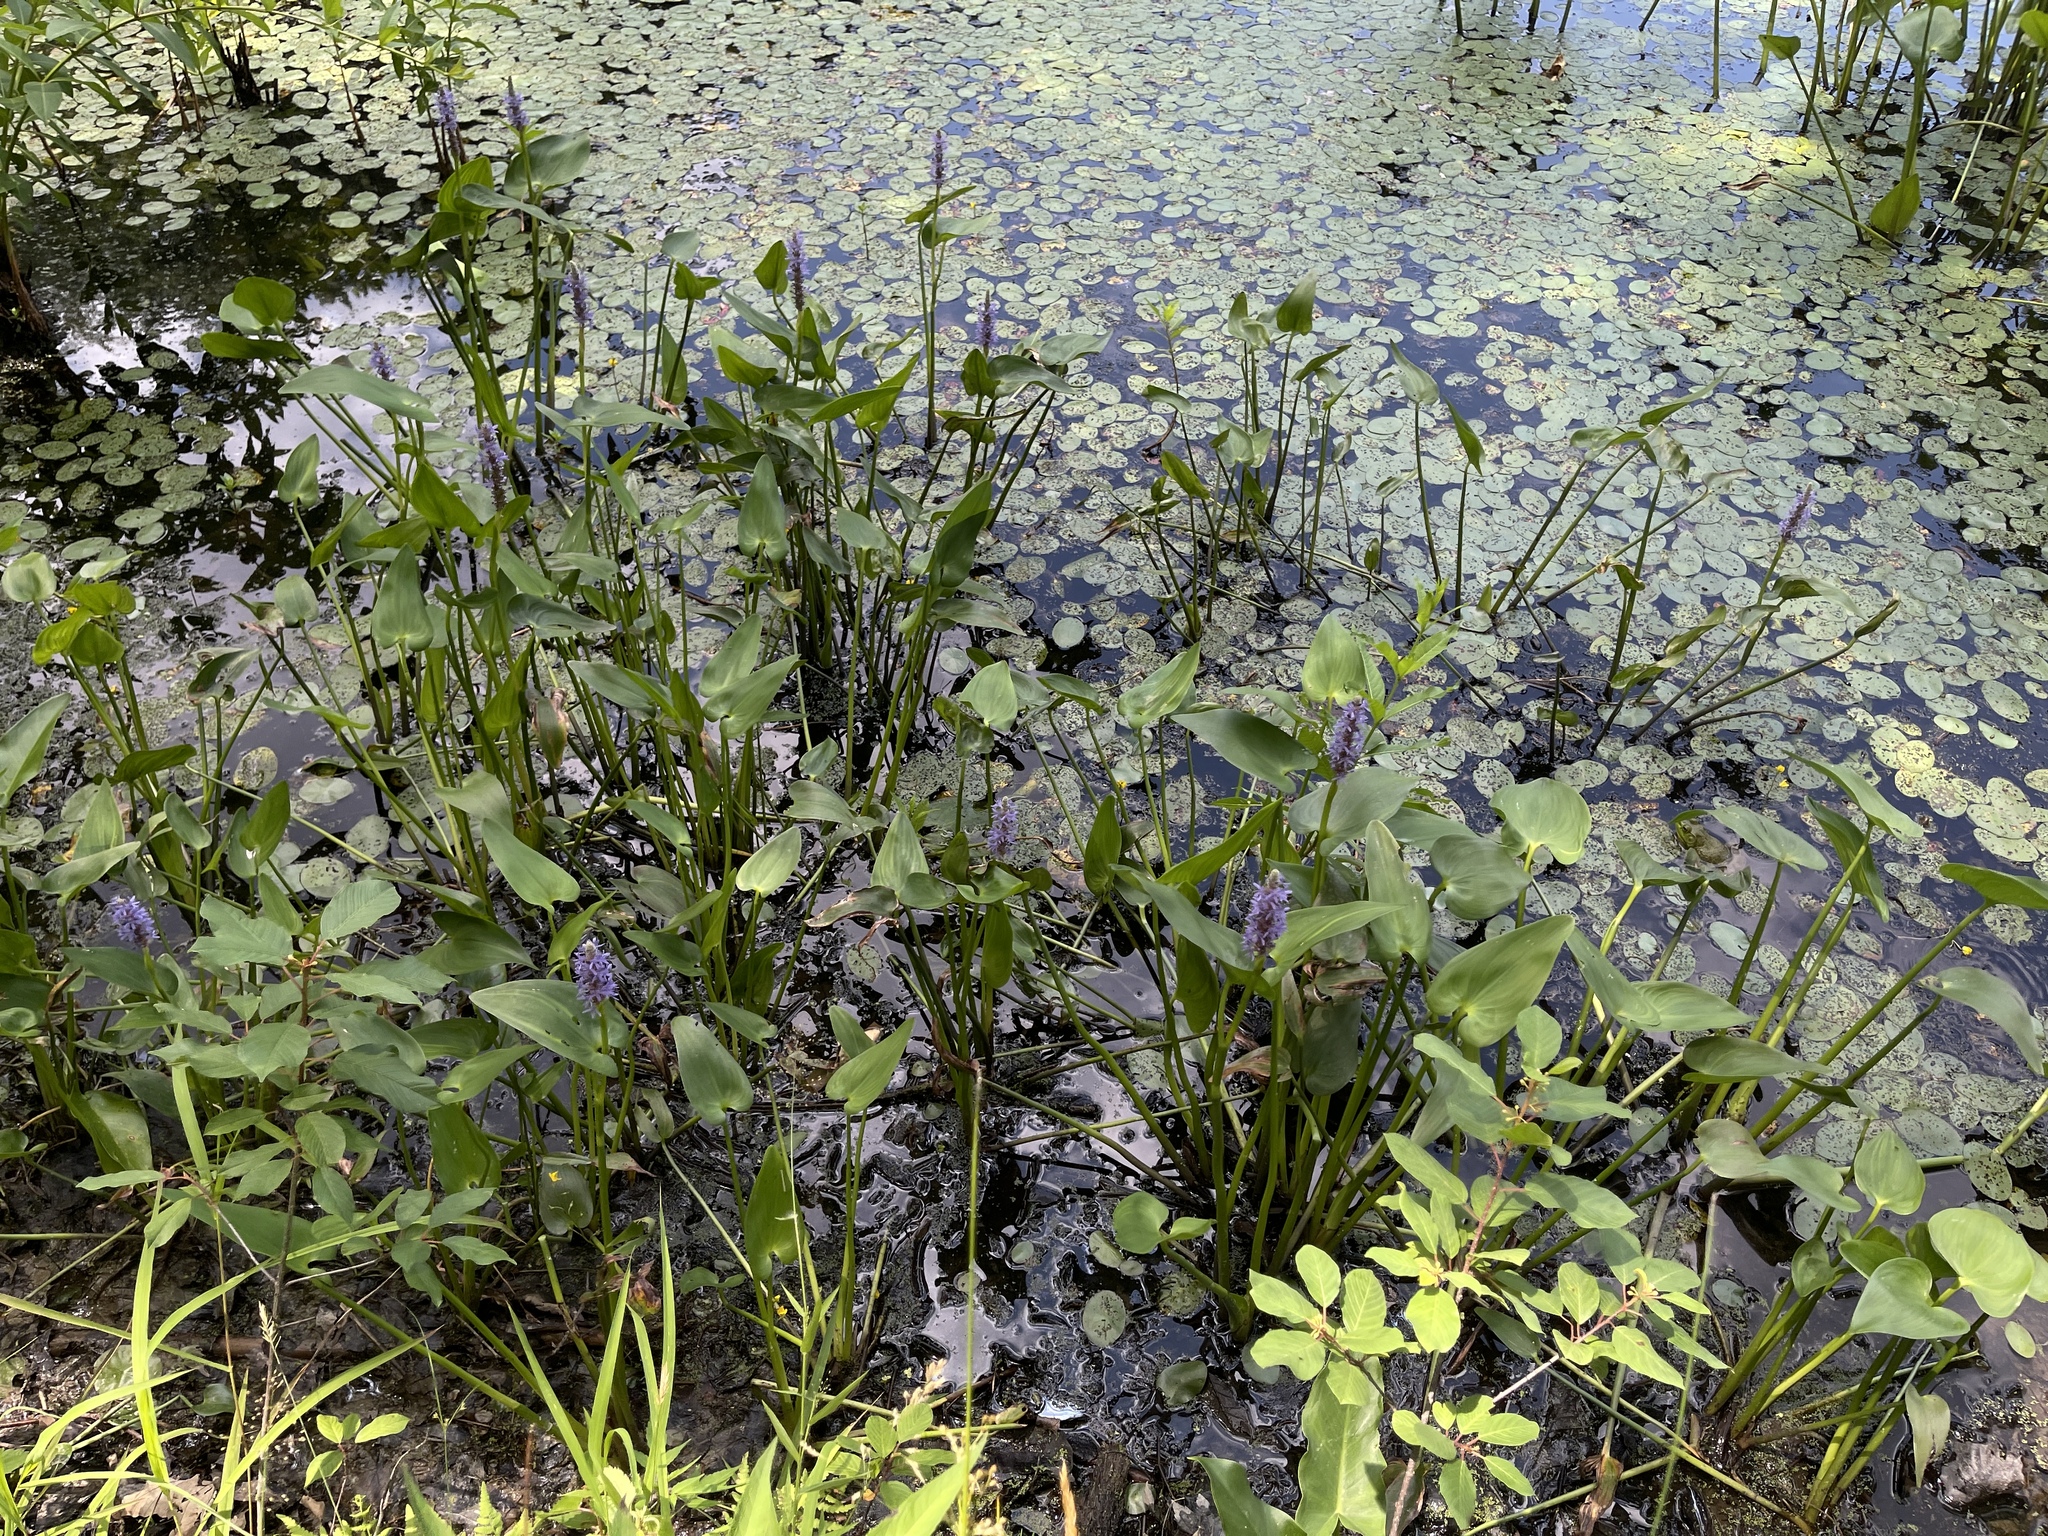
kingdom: Plantae
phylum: Tracheophyta
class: Liliopsida
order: Commelinales
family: Pontederiaceae
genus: Pontederia
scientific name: Pontederia cordata
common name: Pickerelweed
